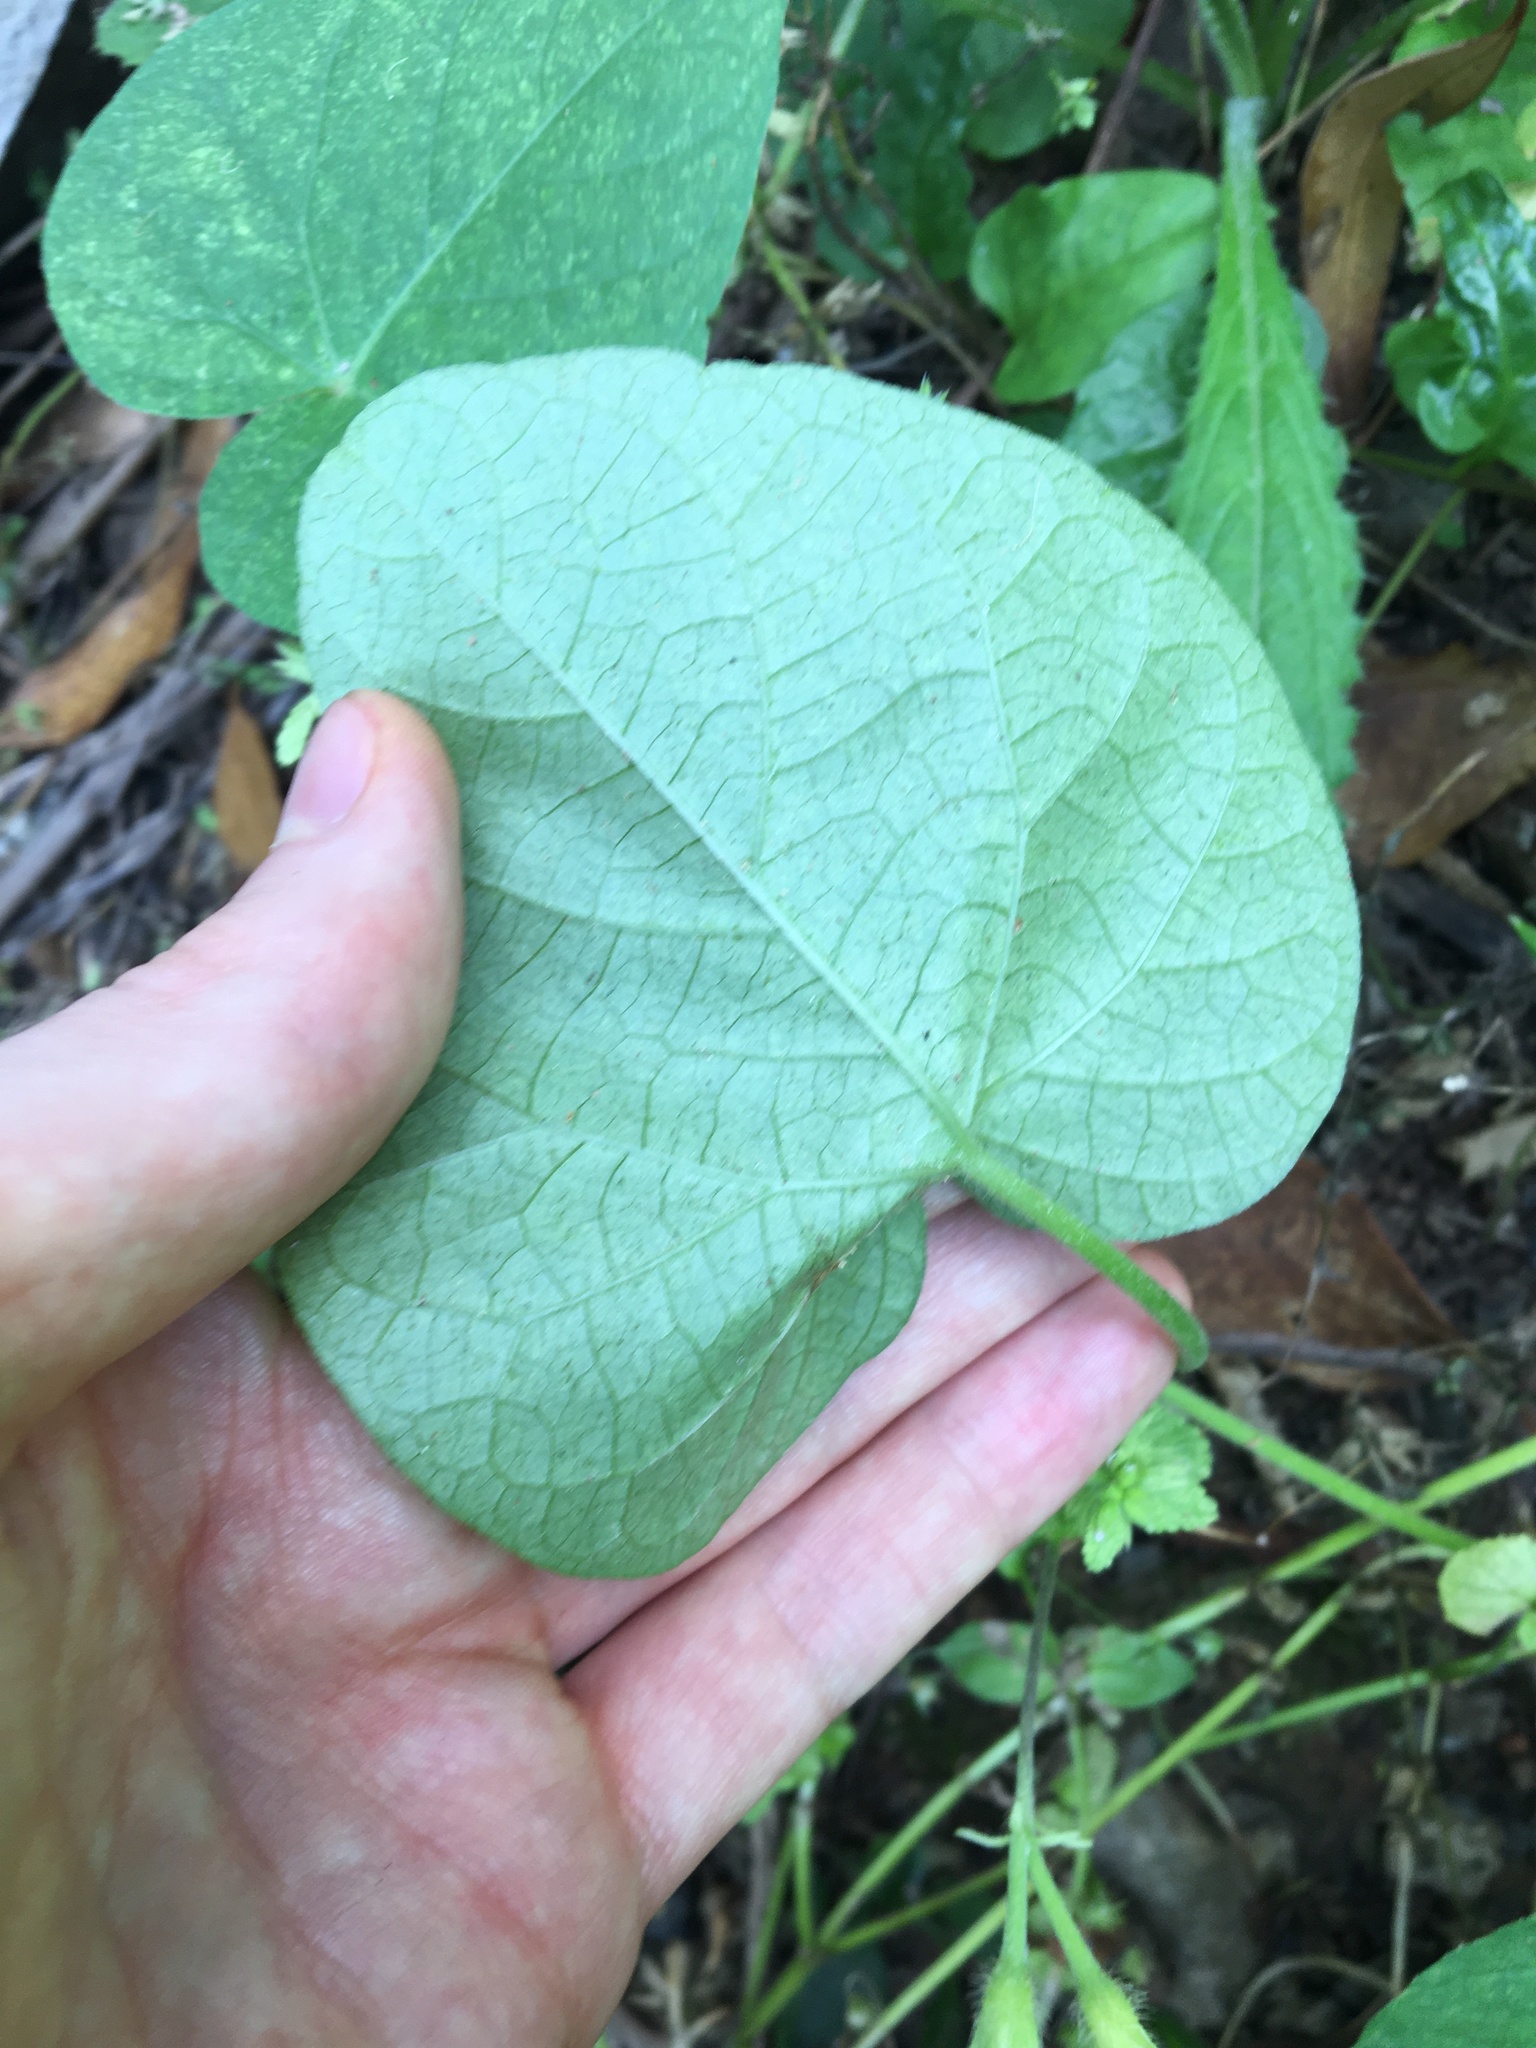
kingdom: Plantae
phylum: Tracheophyta
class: Magnoliopsida
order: Solanales
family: Convolvulaceae
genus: Ipomoea
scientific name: Ipomoea purpurea
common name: Common morning-glory
